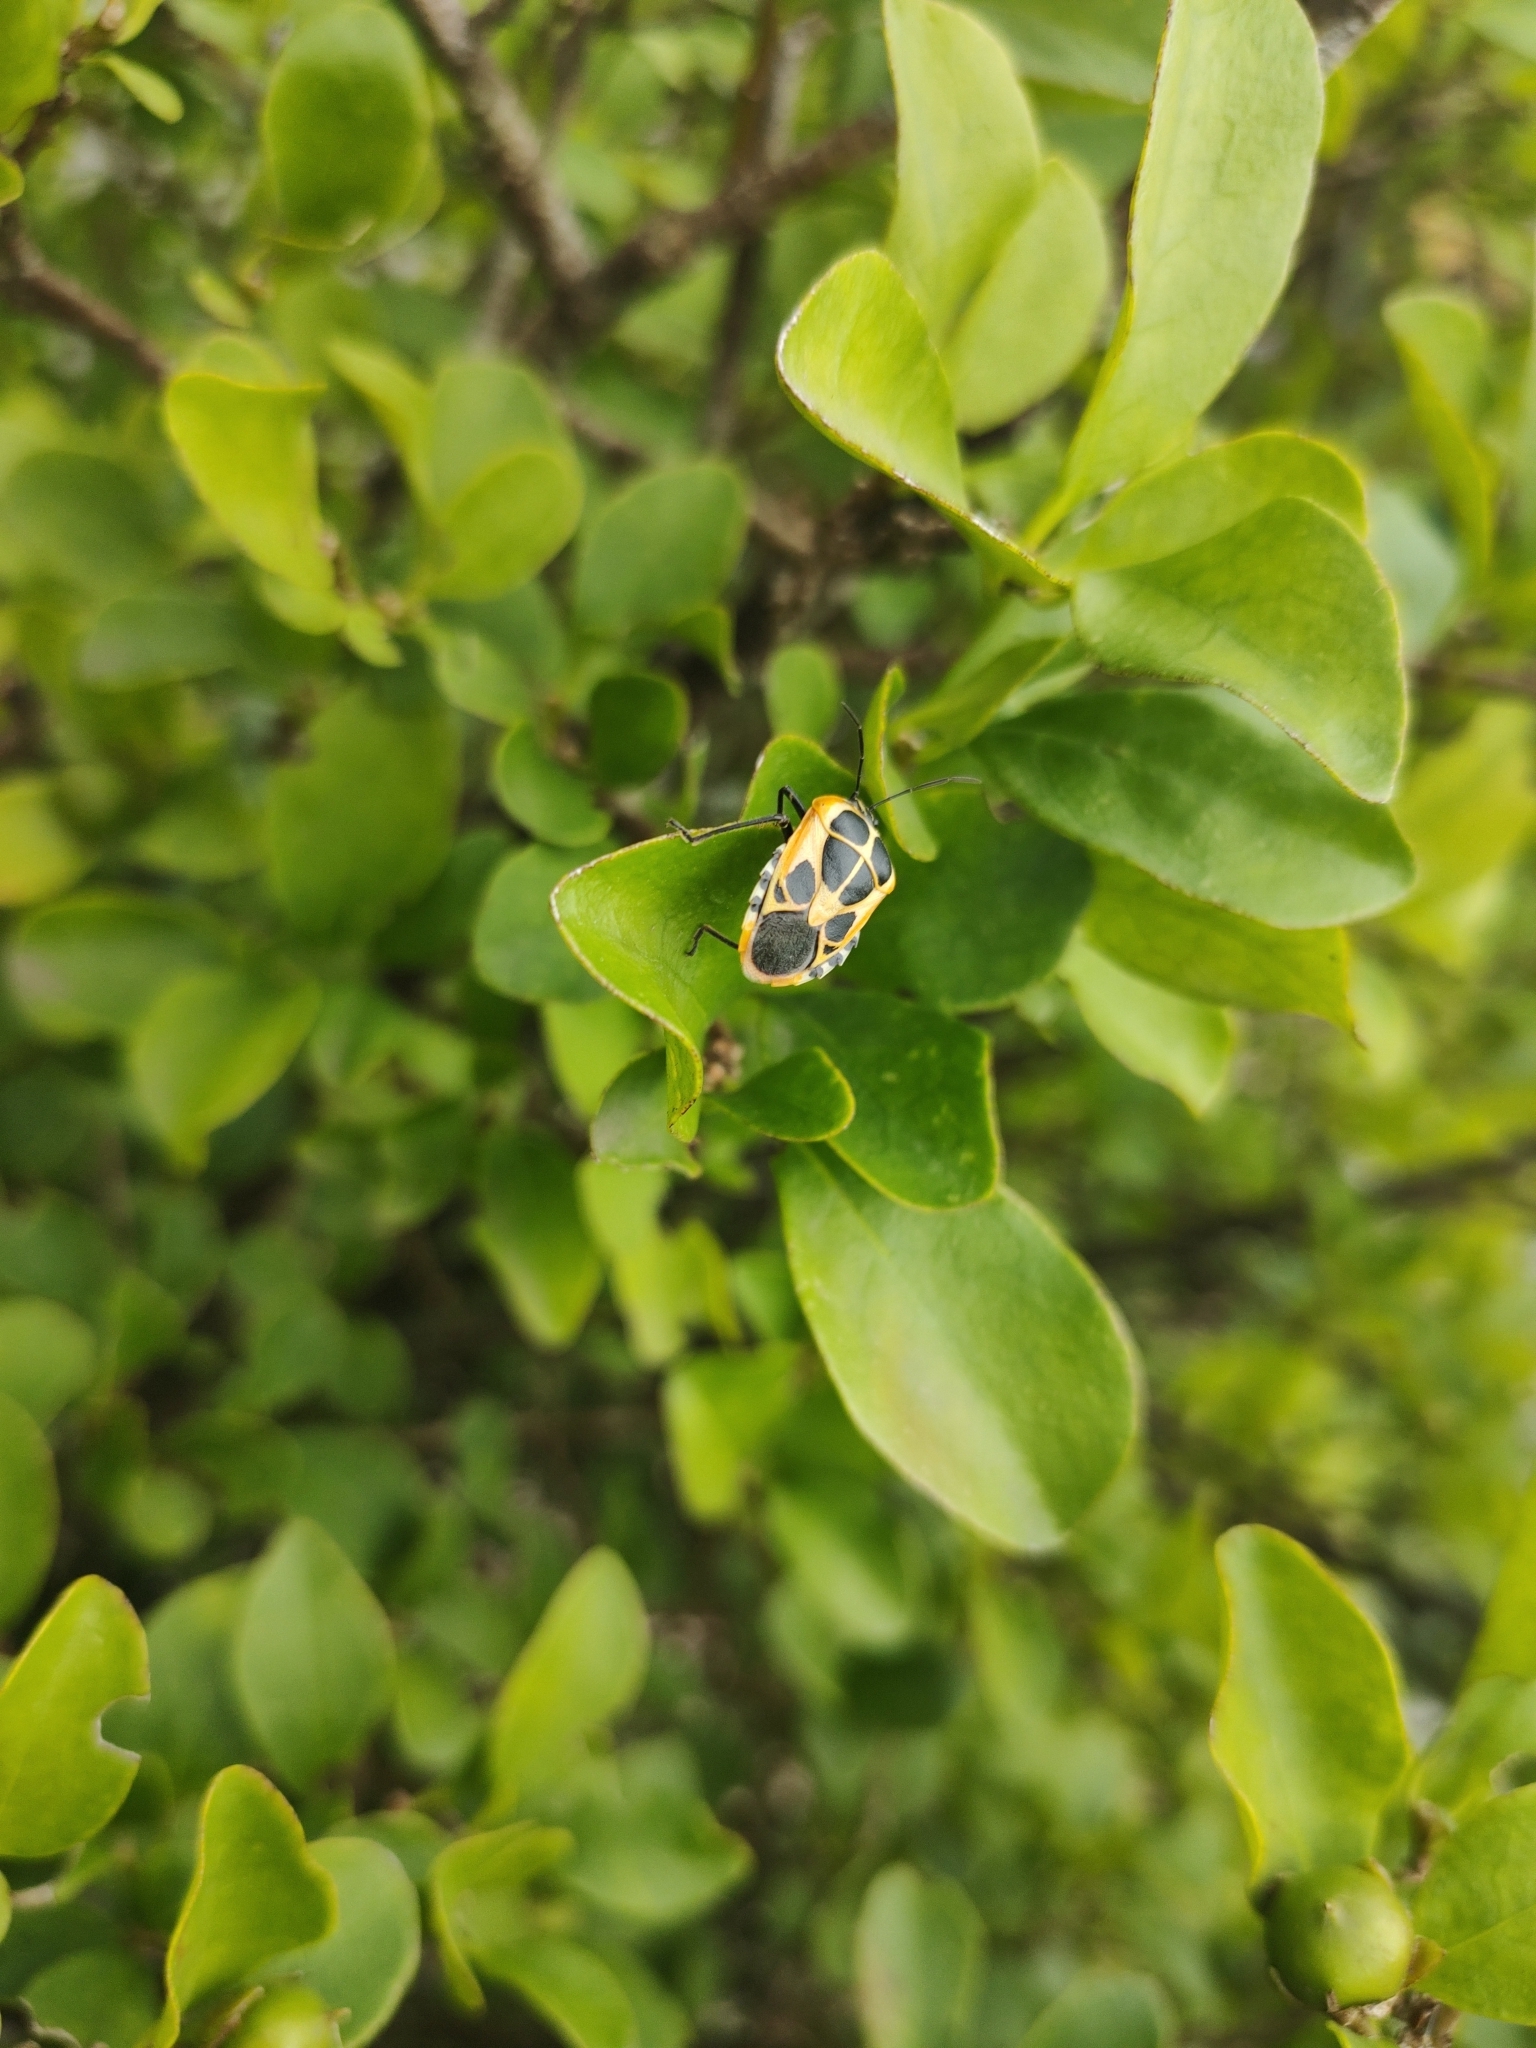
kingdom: Animalia
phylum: Arthropoda
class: Insecta
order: Hemiptera
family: Pentatomidae
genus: Runibia
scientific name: Runibia perspicua
